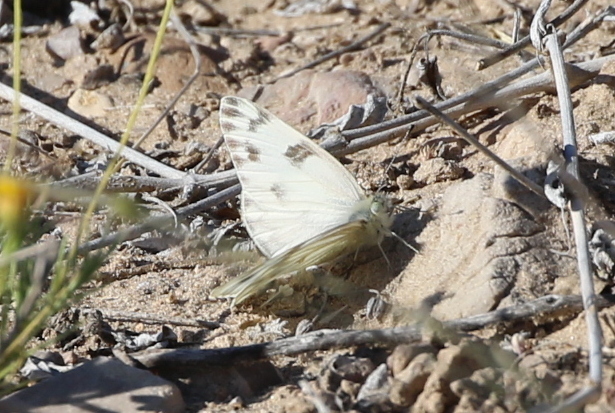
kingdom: Animalia
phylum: Arthropoda
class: Insecta
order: Lepidoptera
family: Pieridae
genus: Pontia
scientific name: Pontia protodice
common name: Checkered white
